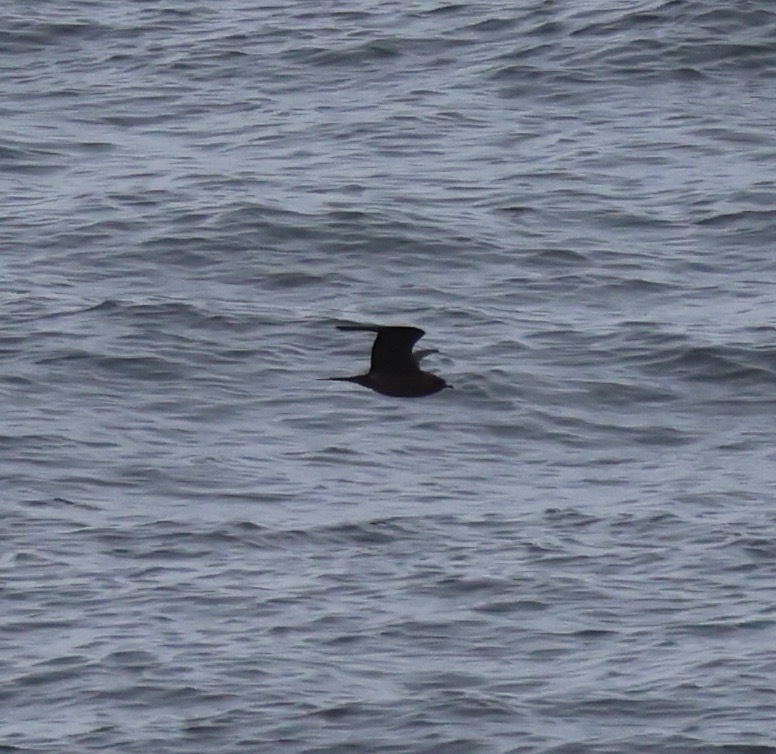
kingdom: Animalia
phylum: Chordata
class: Aves
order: Charadriiformes
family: Stercorariidae
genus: Stercorarius
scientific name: Stercorarius parasiticus
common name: Parasitic jaeger
